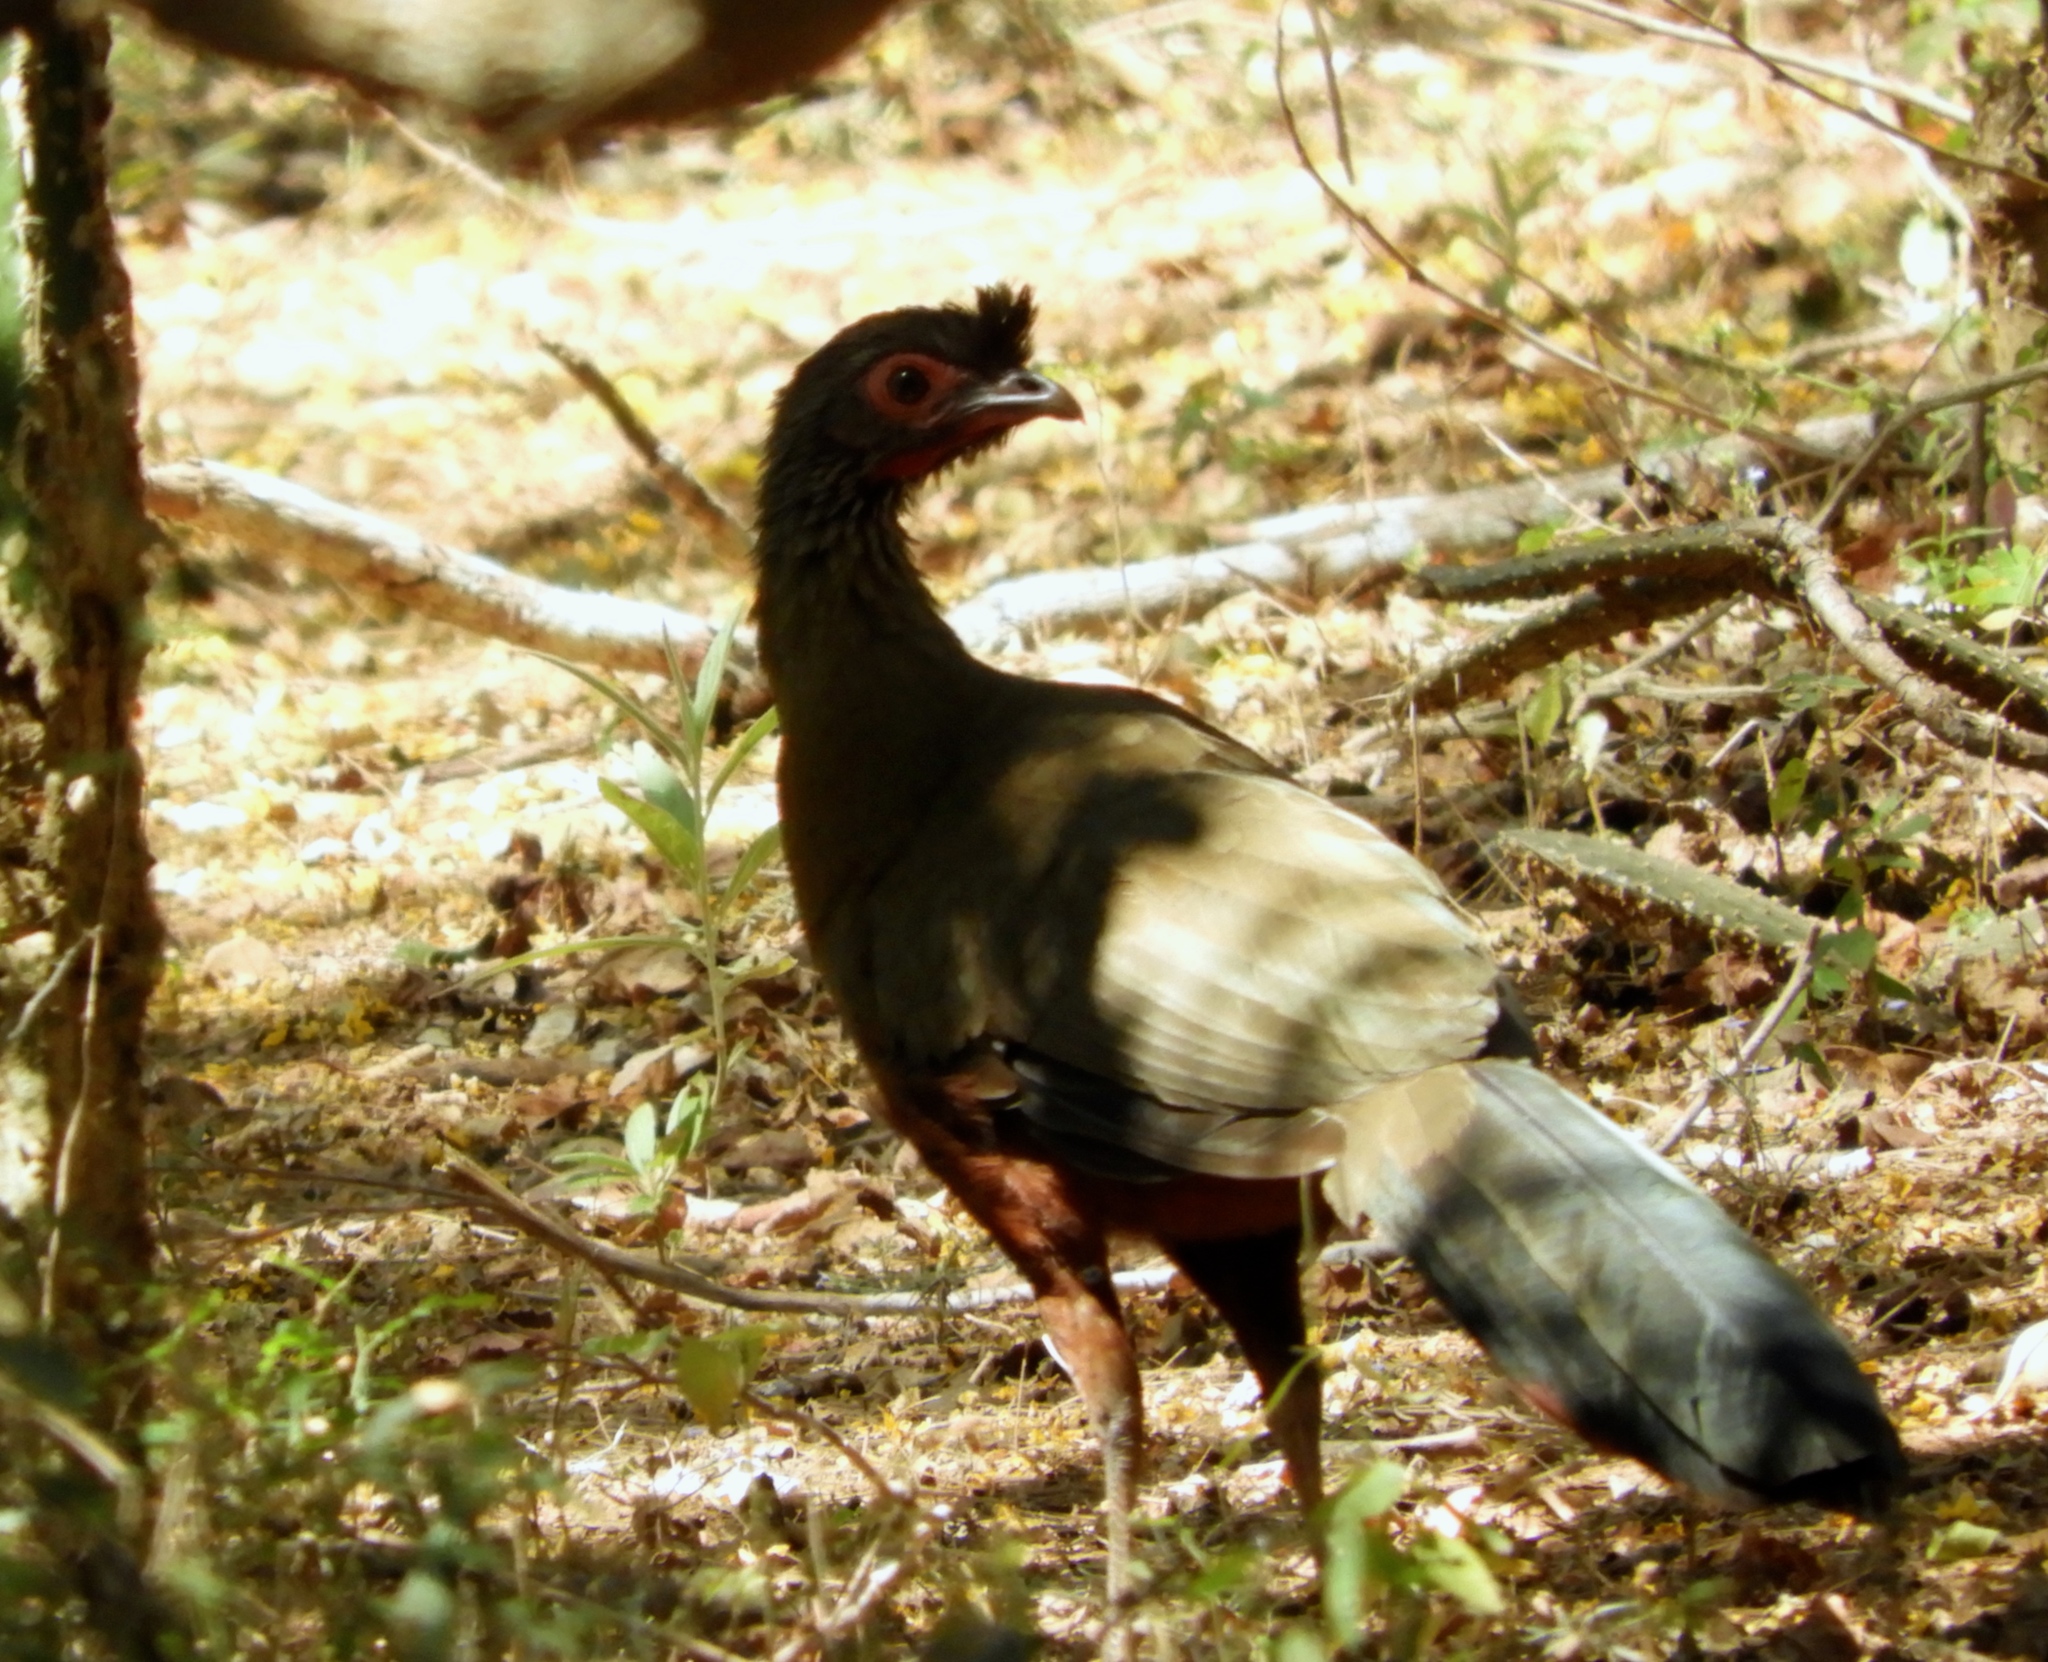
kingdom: Animalia
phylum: Chordata
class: Aves
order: Galliformes
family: Cracidae
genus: Ortalis
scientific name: Ortalis wagleri
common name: Rufous-bellied chachalaca
